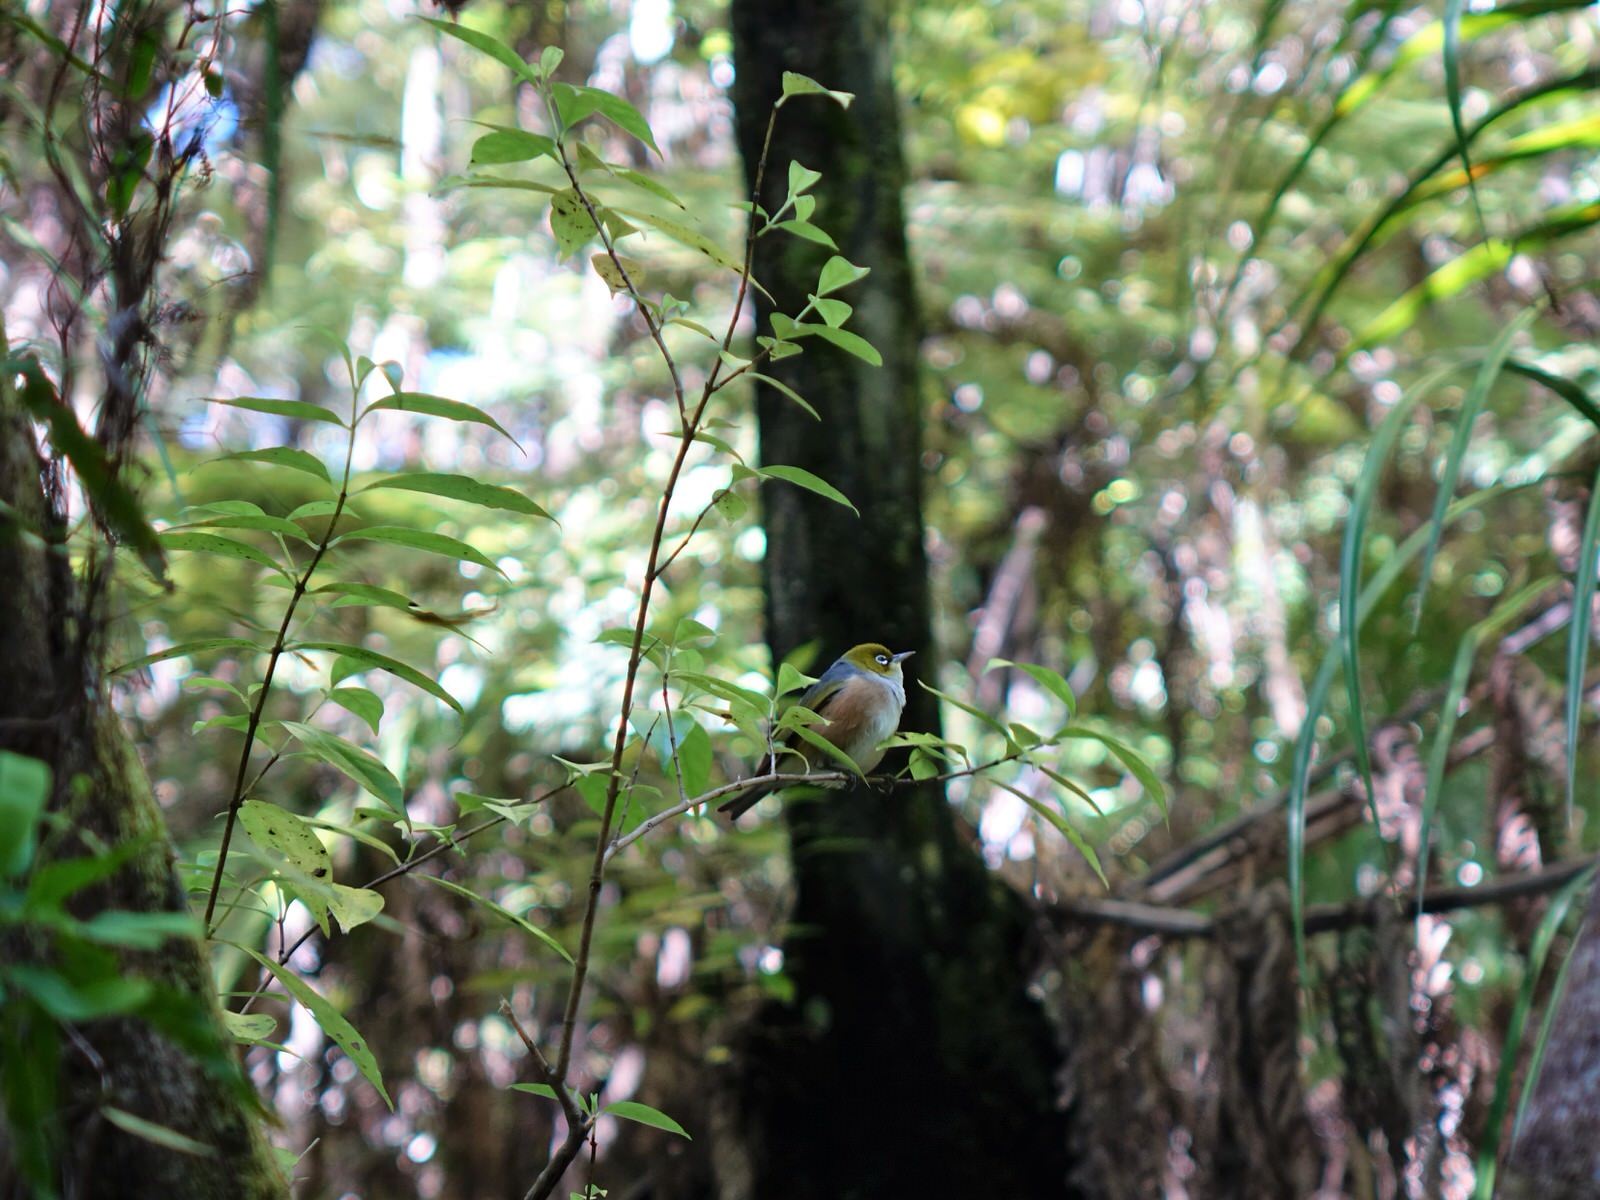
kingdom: Animalia
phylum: Chordata
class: Aves
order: Passeriformes
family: Zosteropidae
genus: Zosterops
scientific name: Zosterops lateralis
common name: Silvereye
